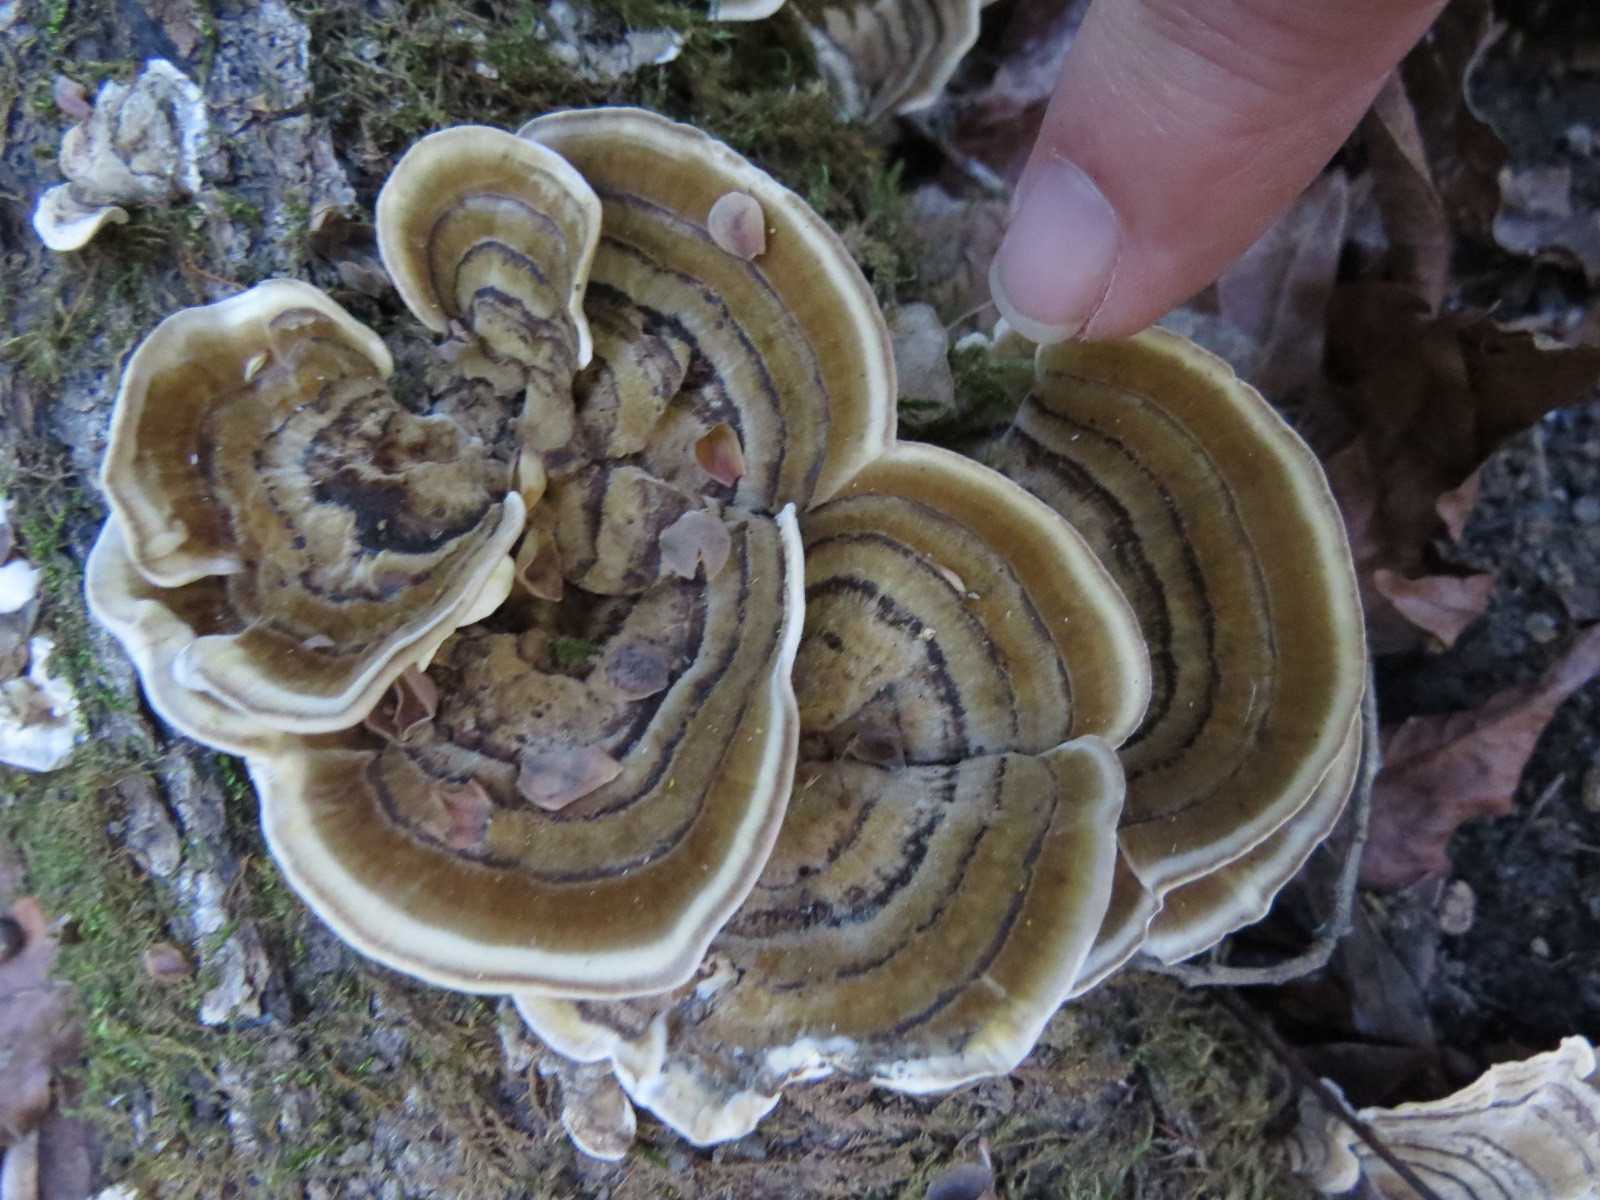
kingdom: Fungi
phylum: Basidiomycota
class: Agaricomycetes
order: Polyporales
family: Polyporaceae
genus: Trametes
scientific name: Trametes versicolor
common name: Turkeytail
